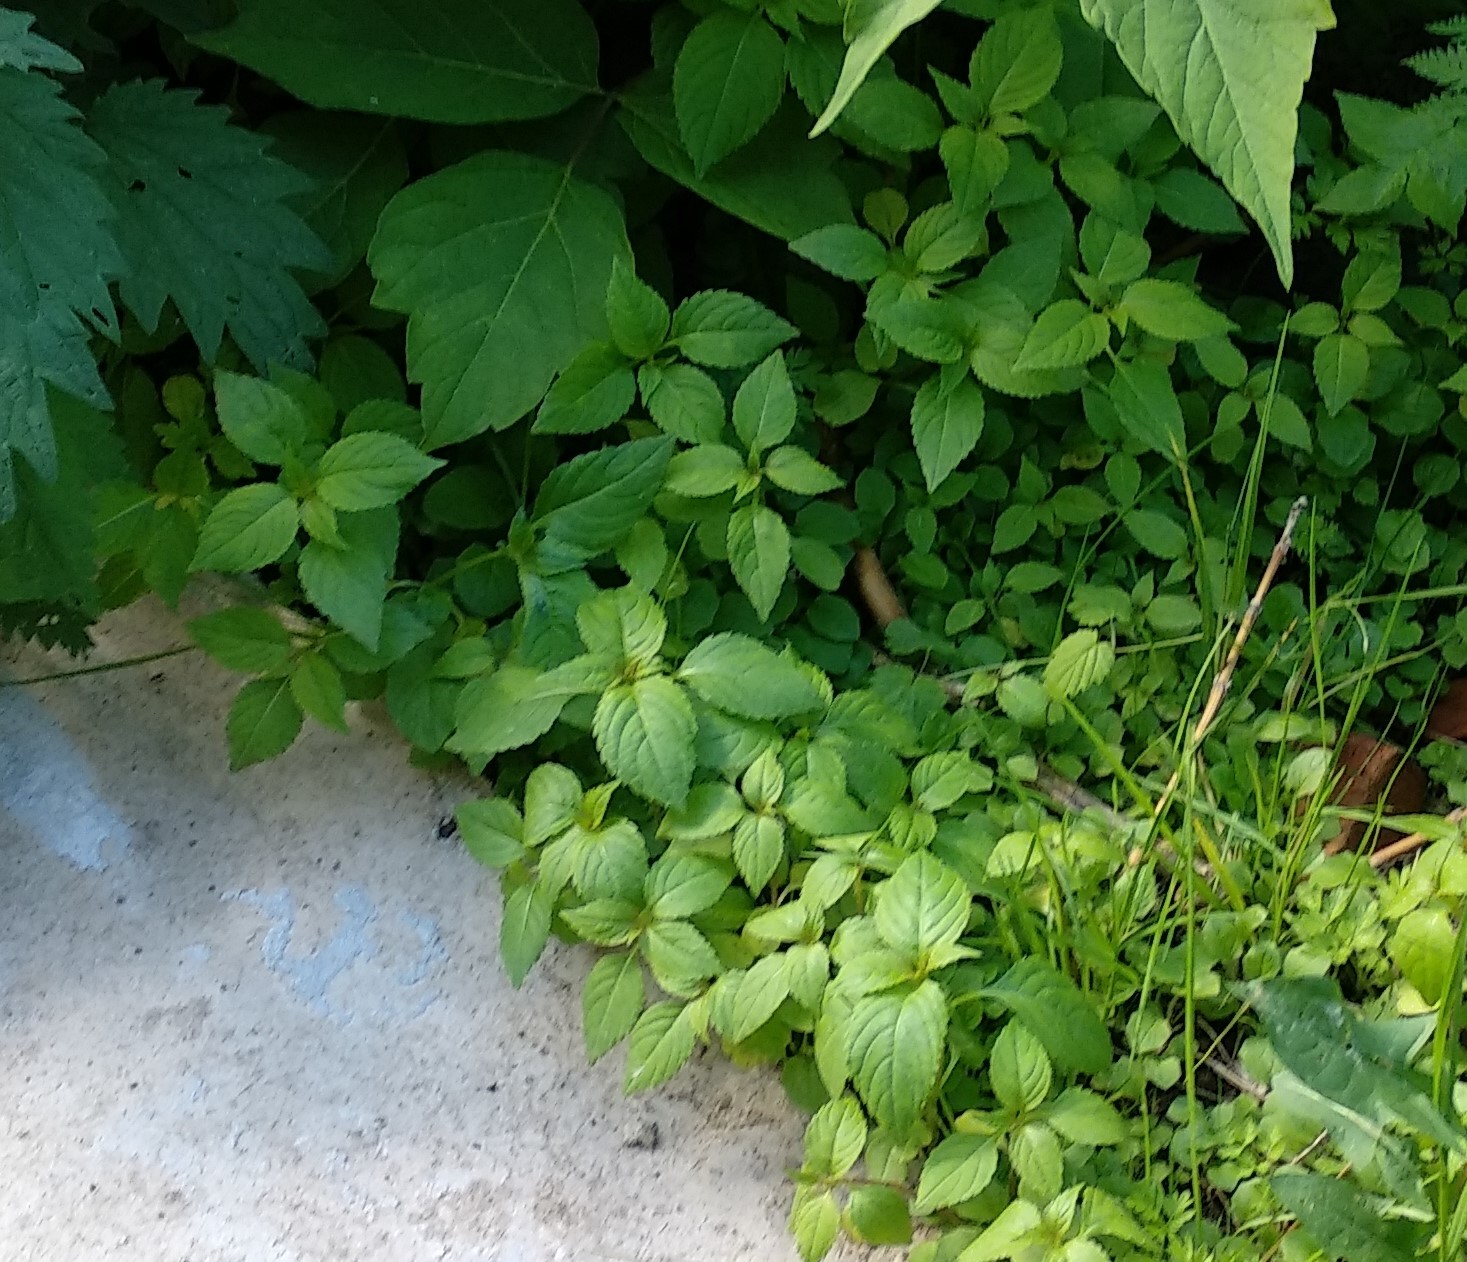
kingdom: Plantae
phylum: Tracheophyta
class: Magnoliopsida
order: Ericales
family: Balsaminaceae
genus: Impatiens
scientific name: Impatiens parviflora
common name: Small balsam
